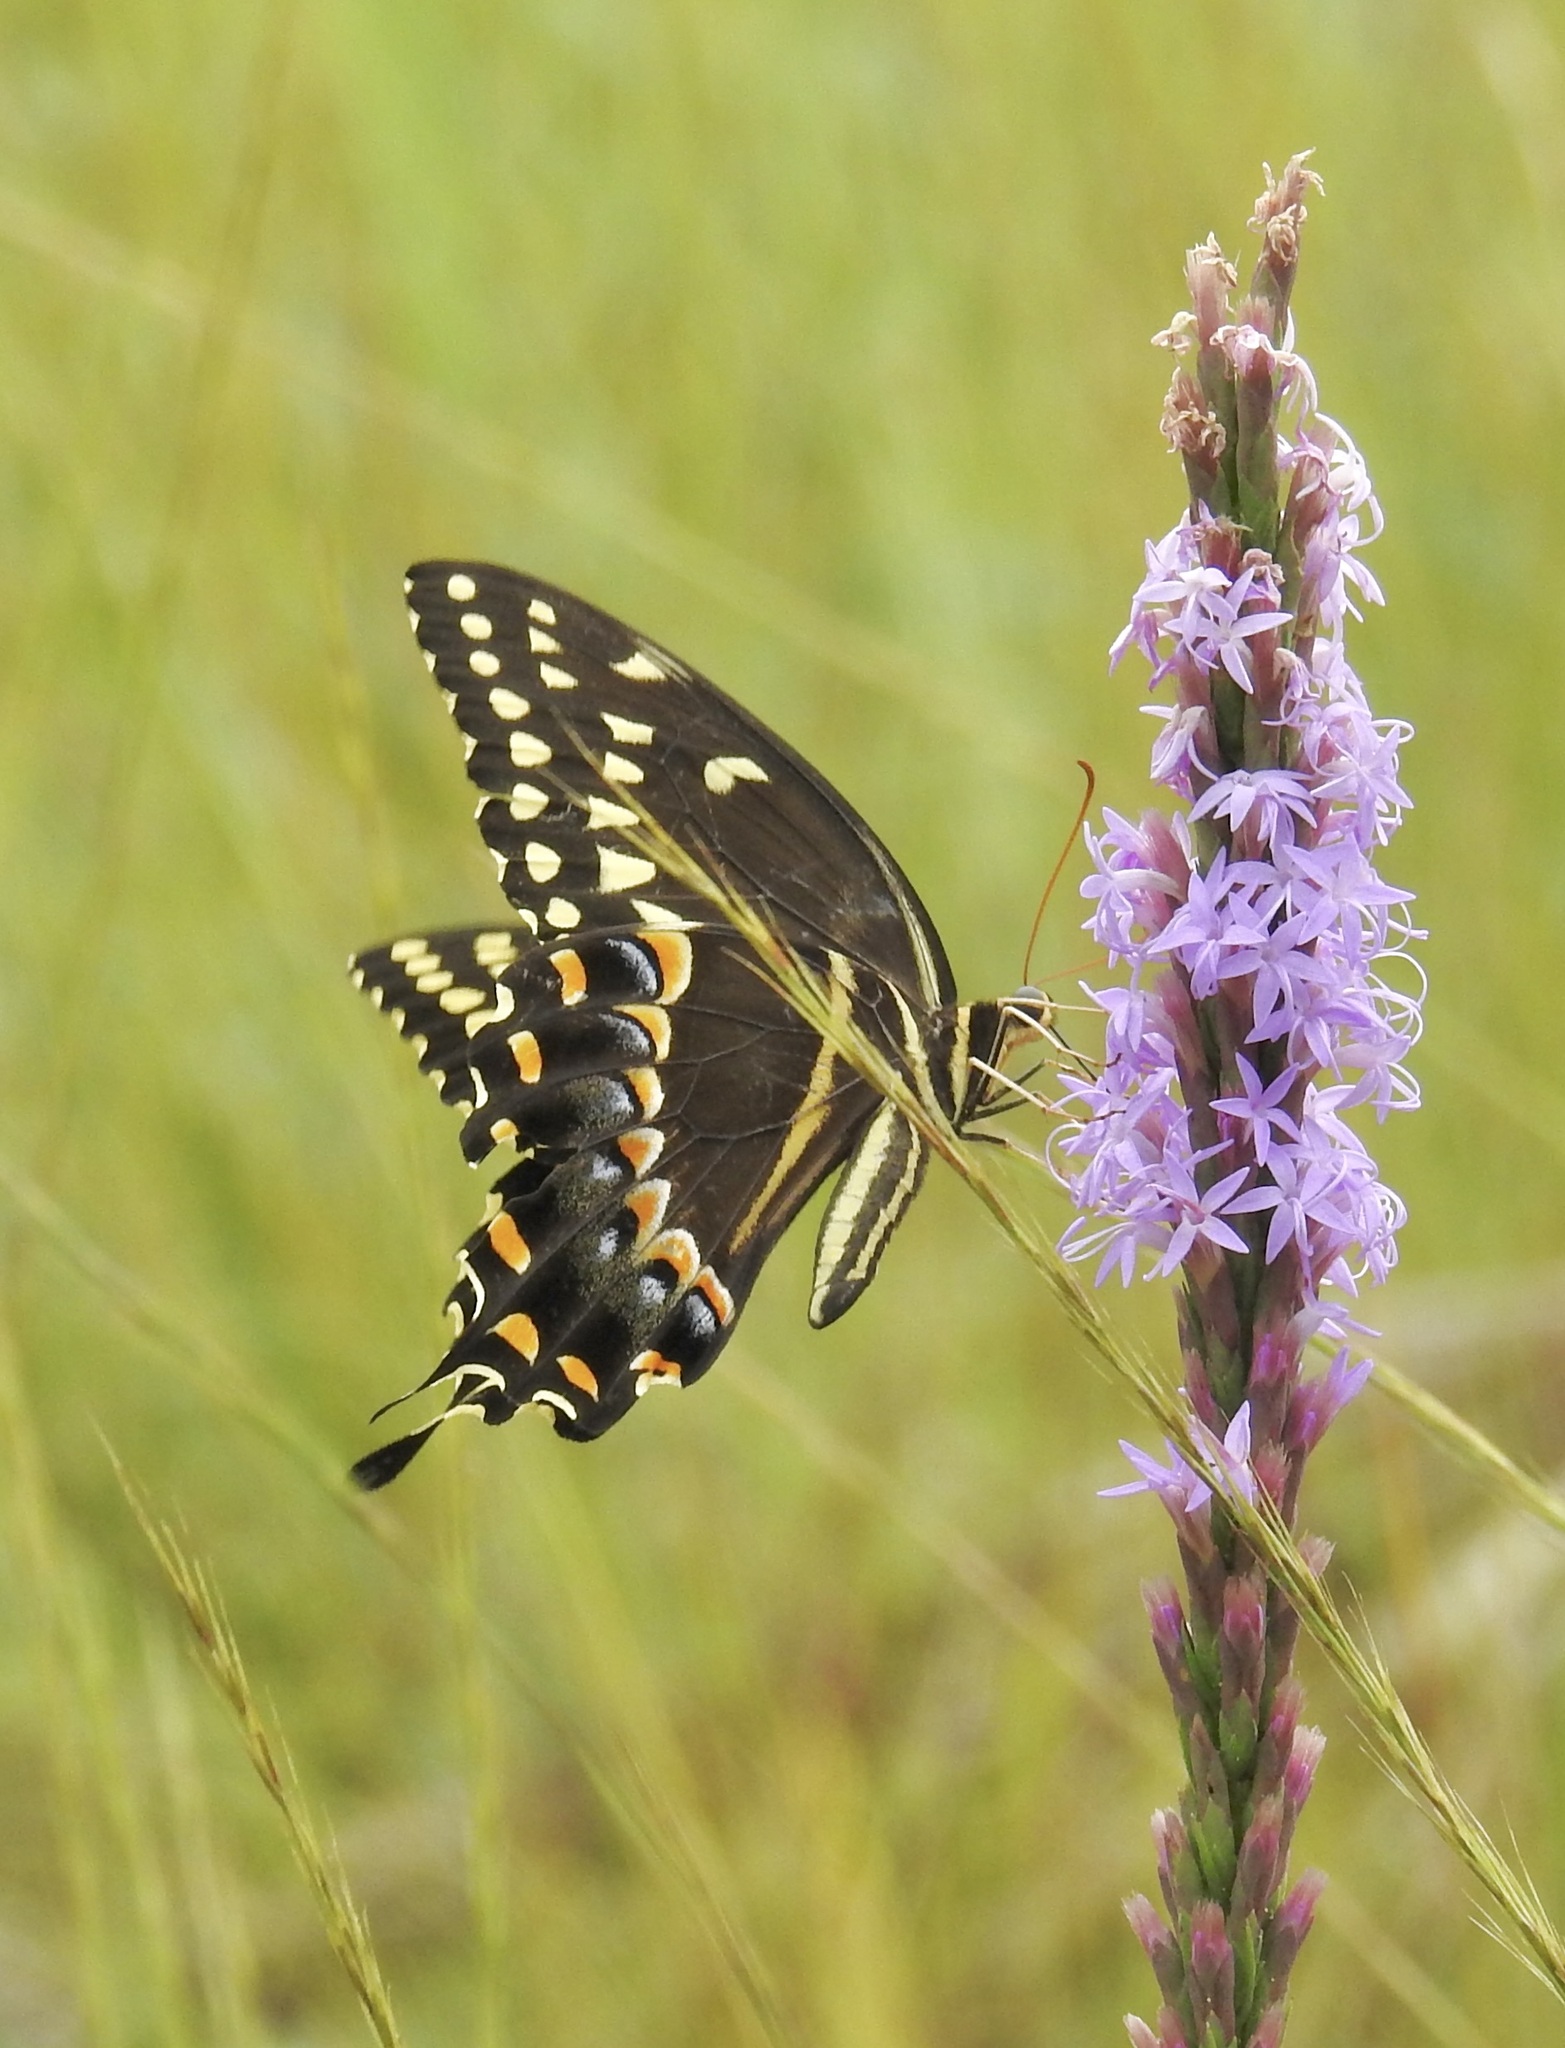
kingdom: Animalia
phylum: Arthropoda
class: Insecta
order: Lepidoptera
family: Papilionidae
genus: Papilio
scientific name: Papilio palamedes
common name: Palamedes swallowtail
